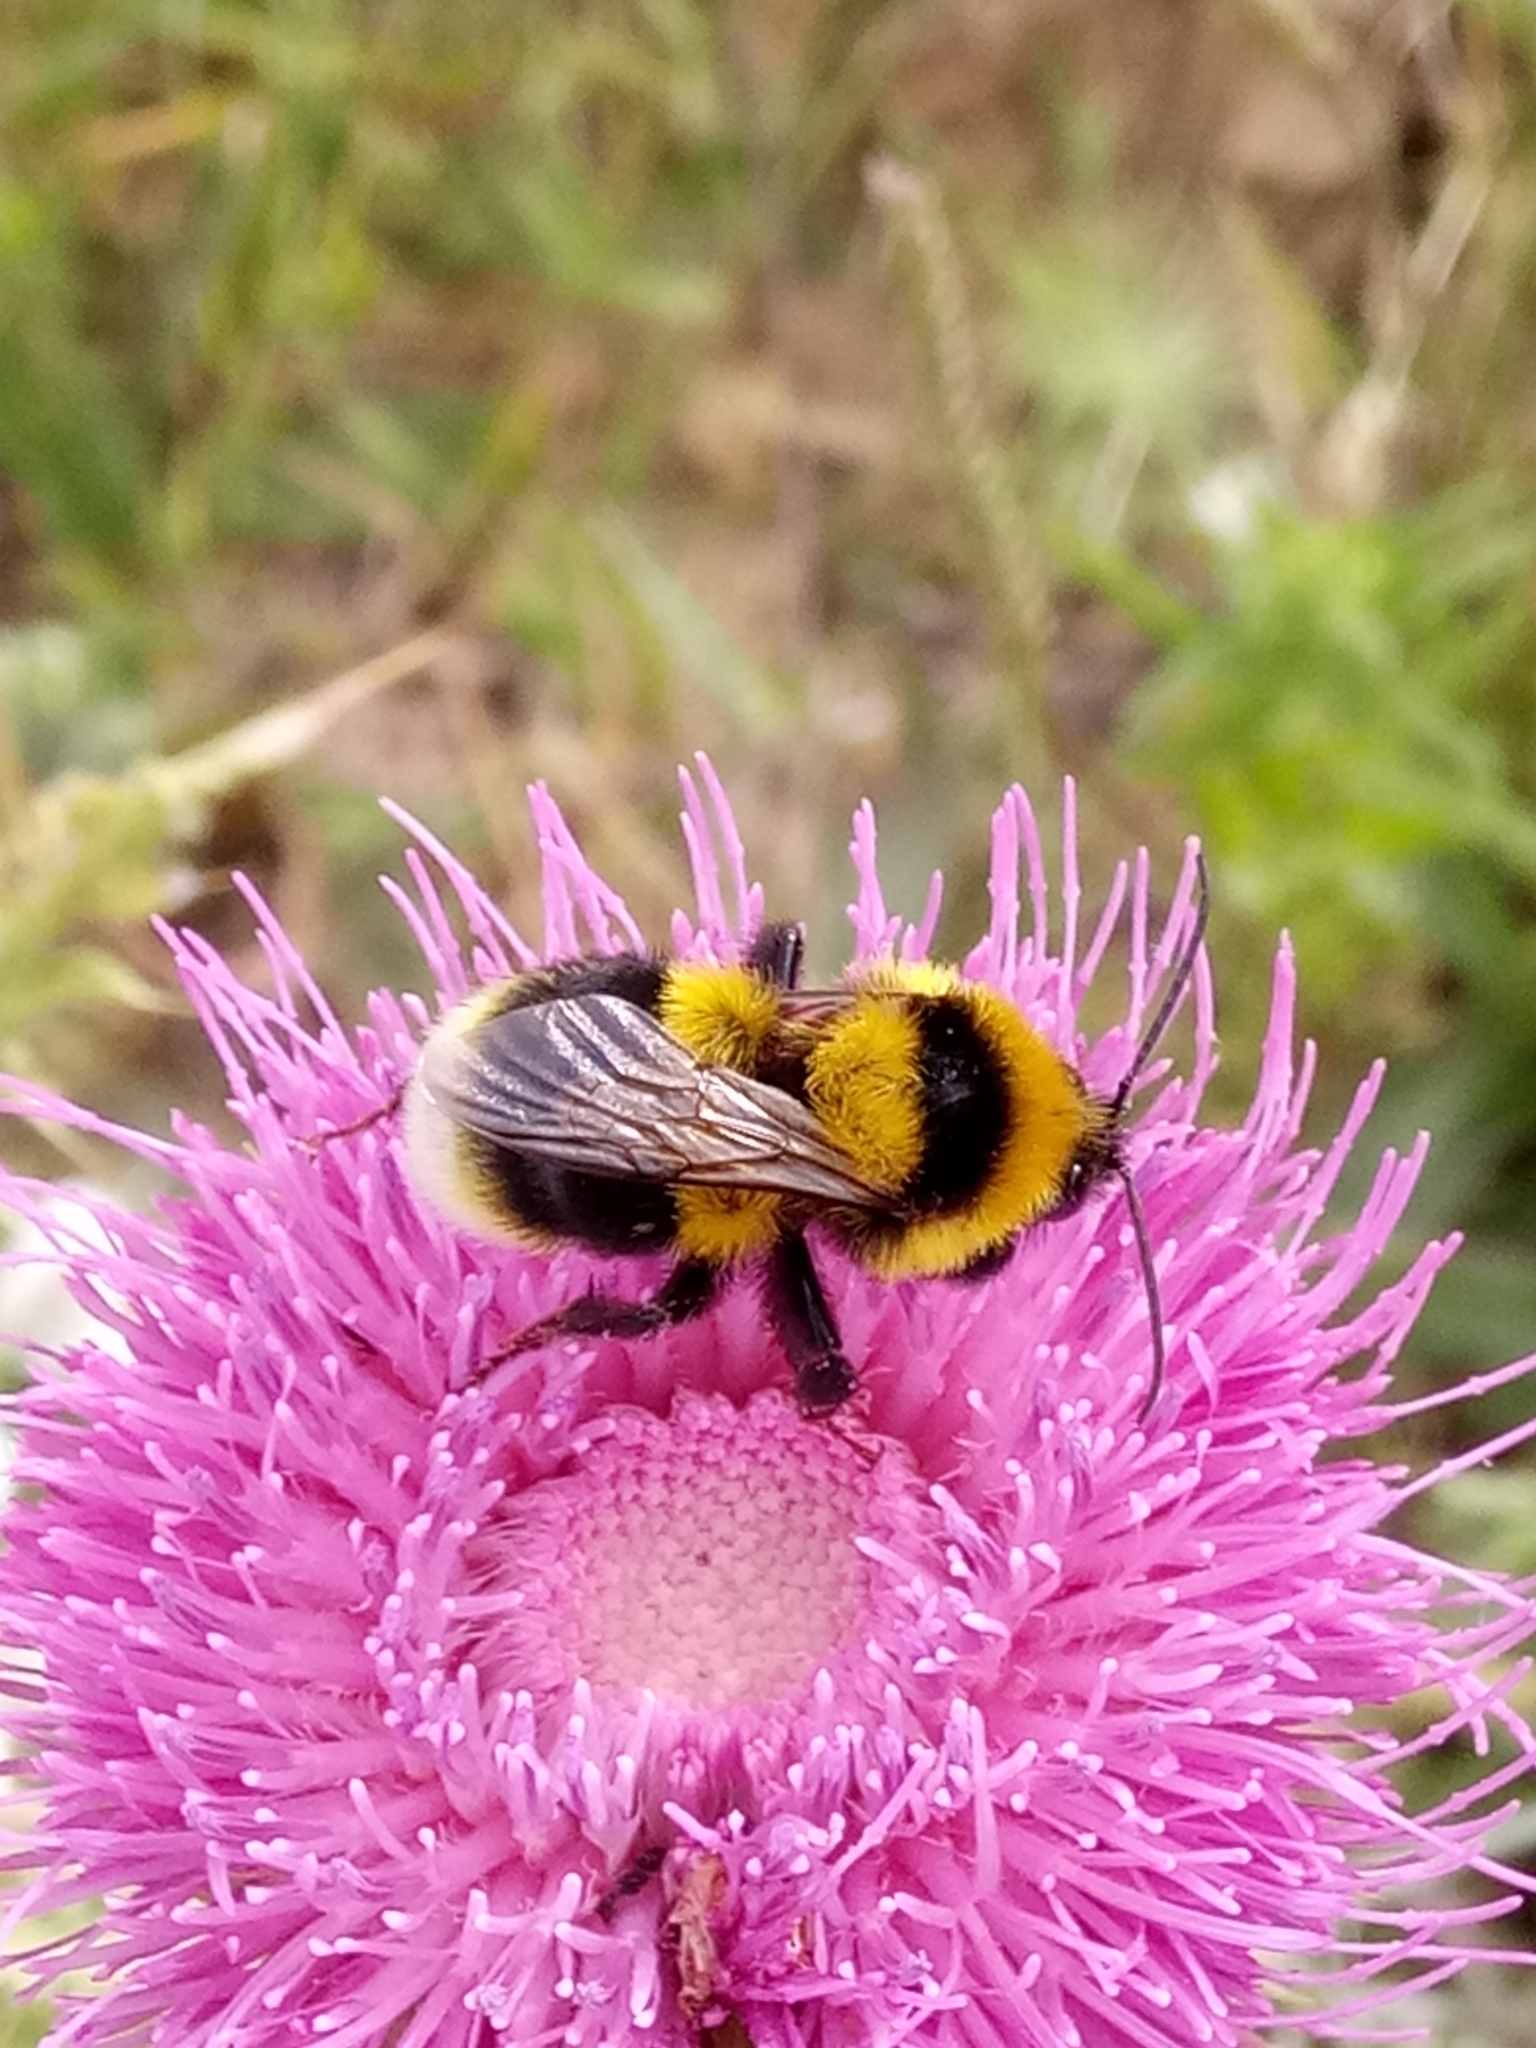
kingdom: Animalia
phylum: Arthropoda
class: Insecta
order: Hymenoptera
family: Apidae
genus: Bombus
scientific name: Bombus ruderatus
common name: Large garden bumblebee
